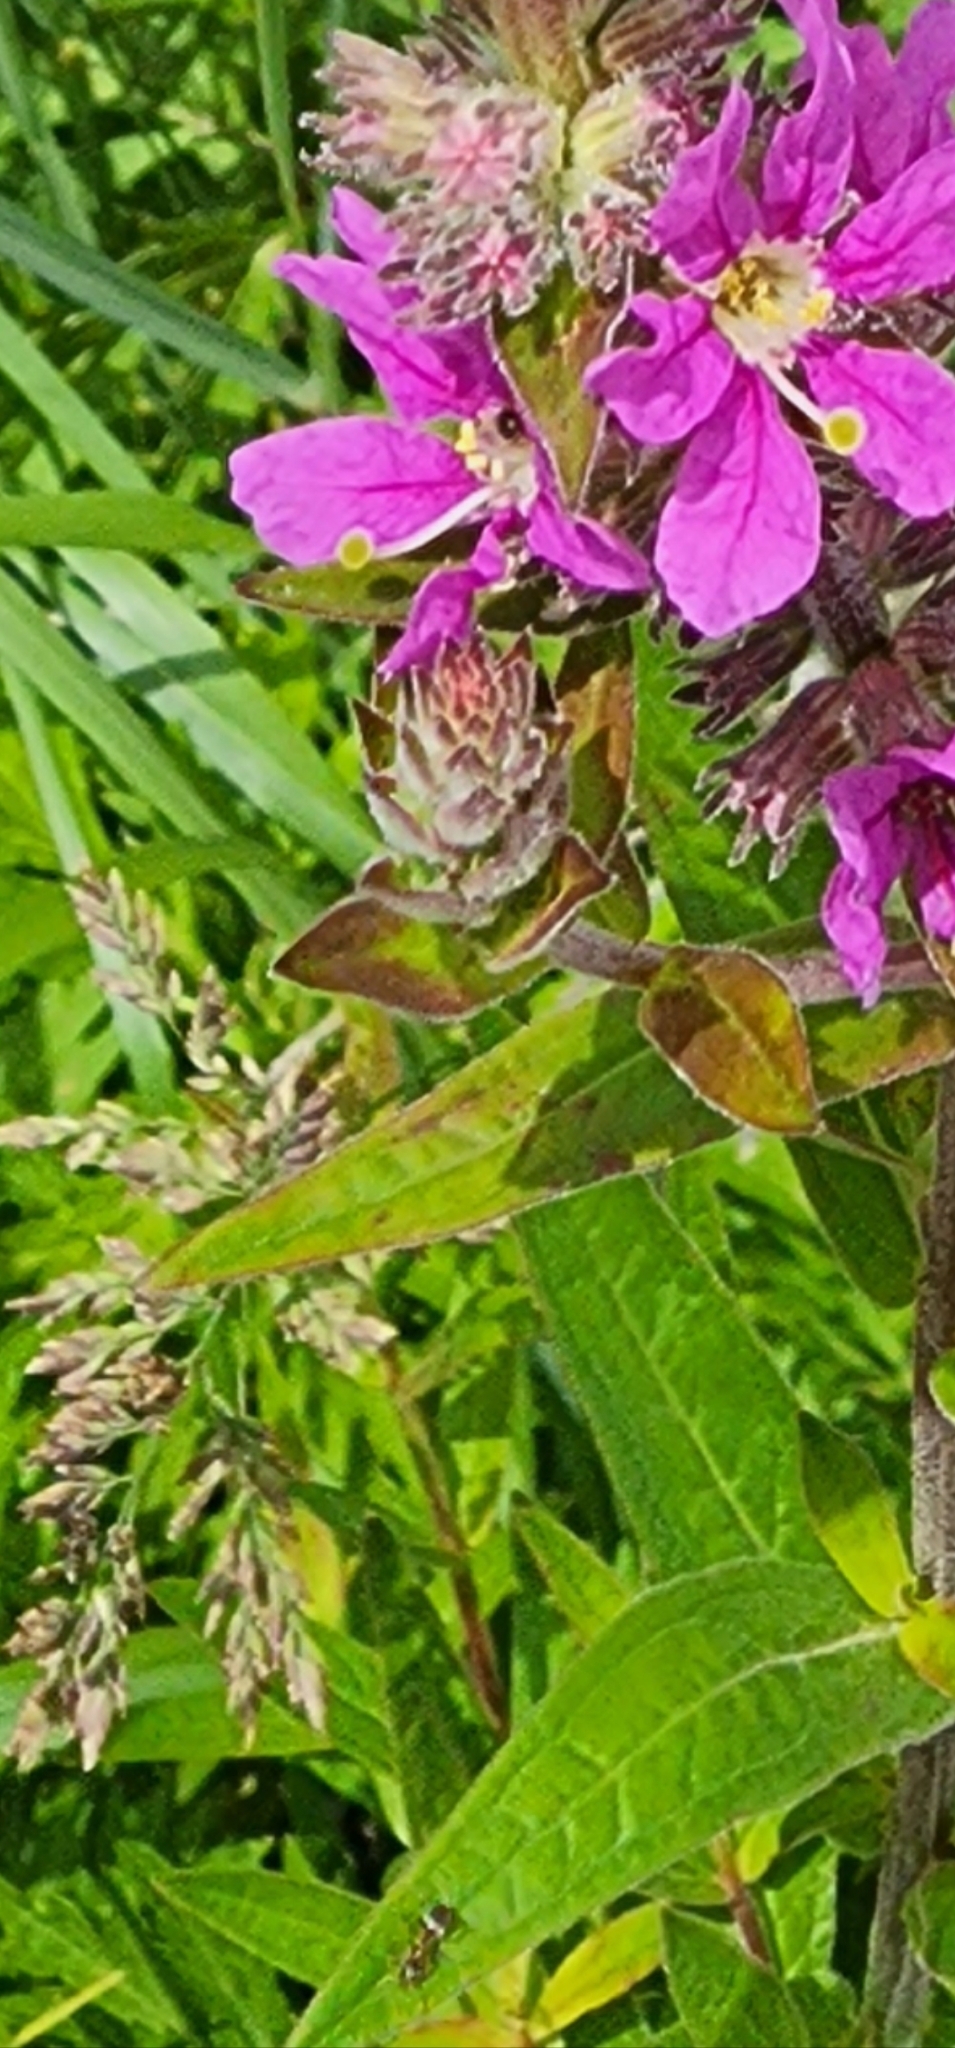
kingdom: Plantae
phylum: Tracheophyta
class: Magnoliopsida
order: Myrtales
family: Lythraceae
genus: Lythrum
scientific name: Lythrum salicaria
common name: Purple loosestrife
